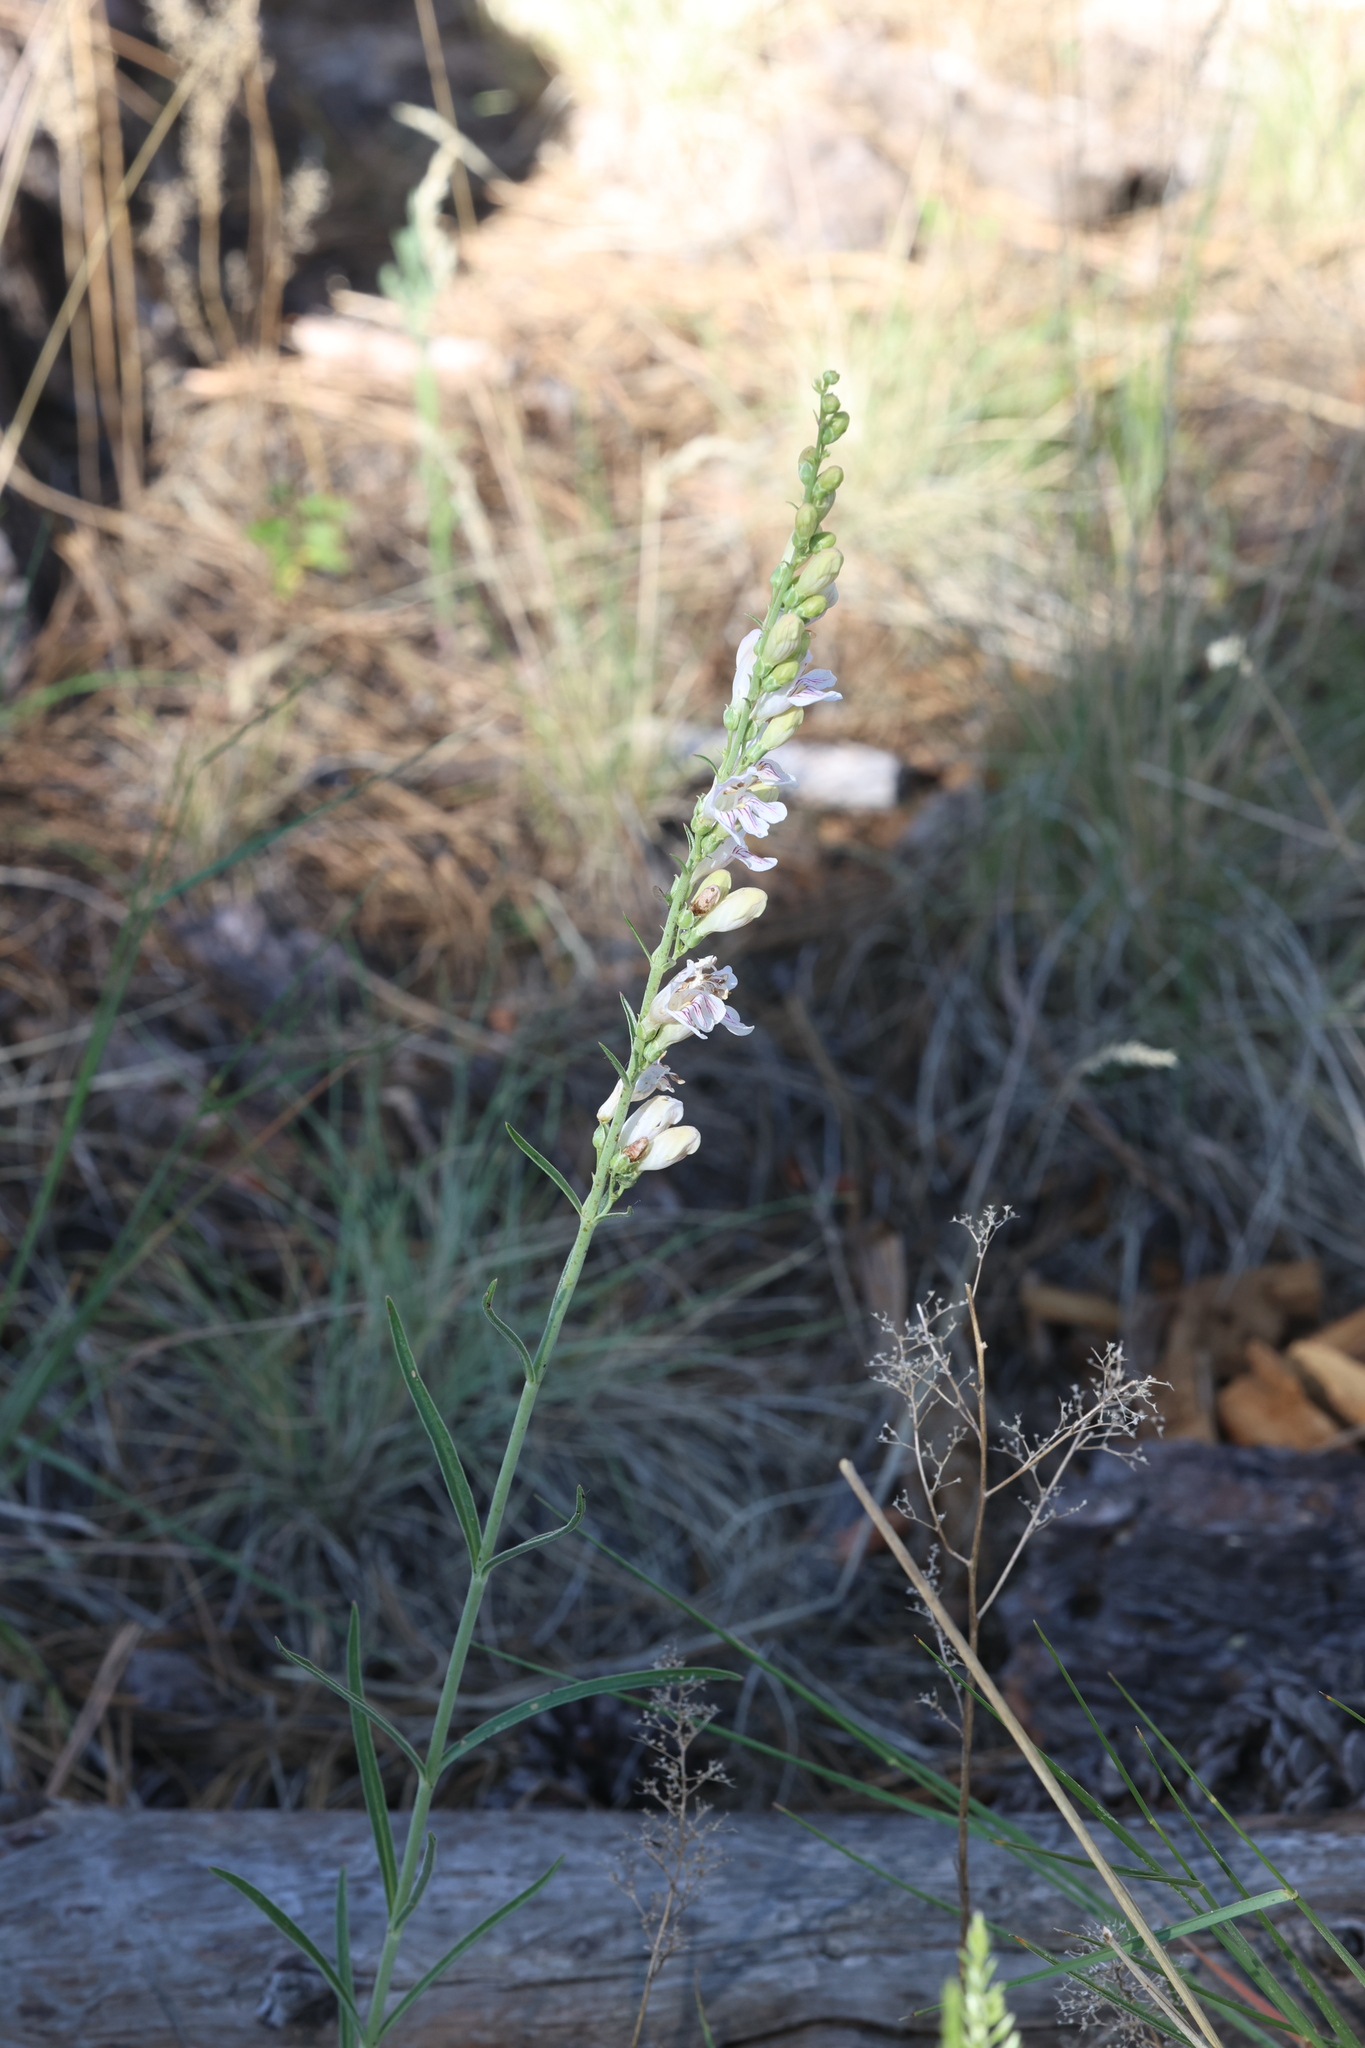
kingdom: Plantae
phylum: Tracheophyta
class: Magnoliopsida
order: Lamiales
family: Plantaginaceae
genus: Penstemon
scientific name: Penstemon virgatus
